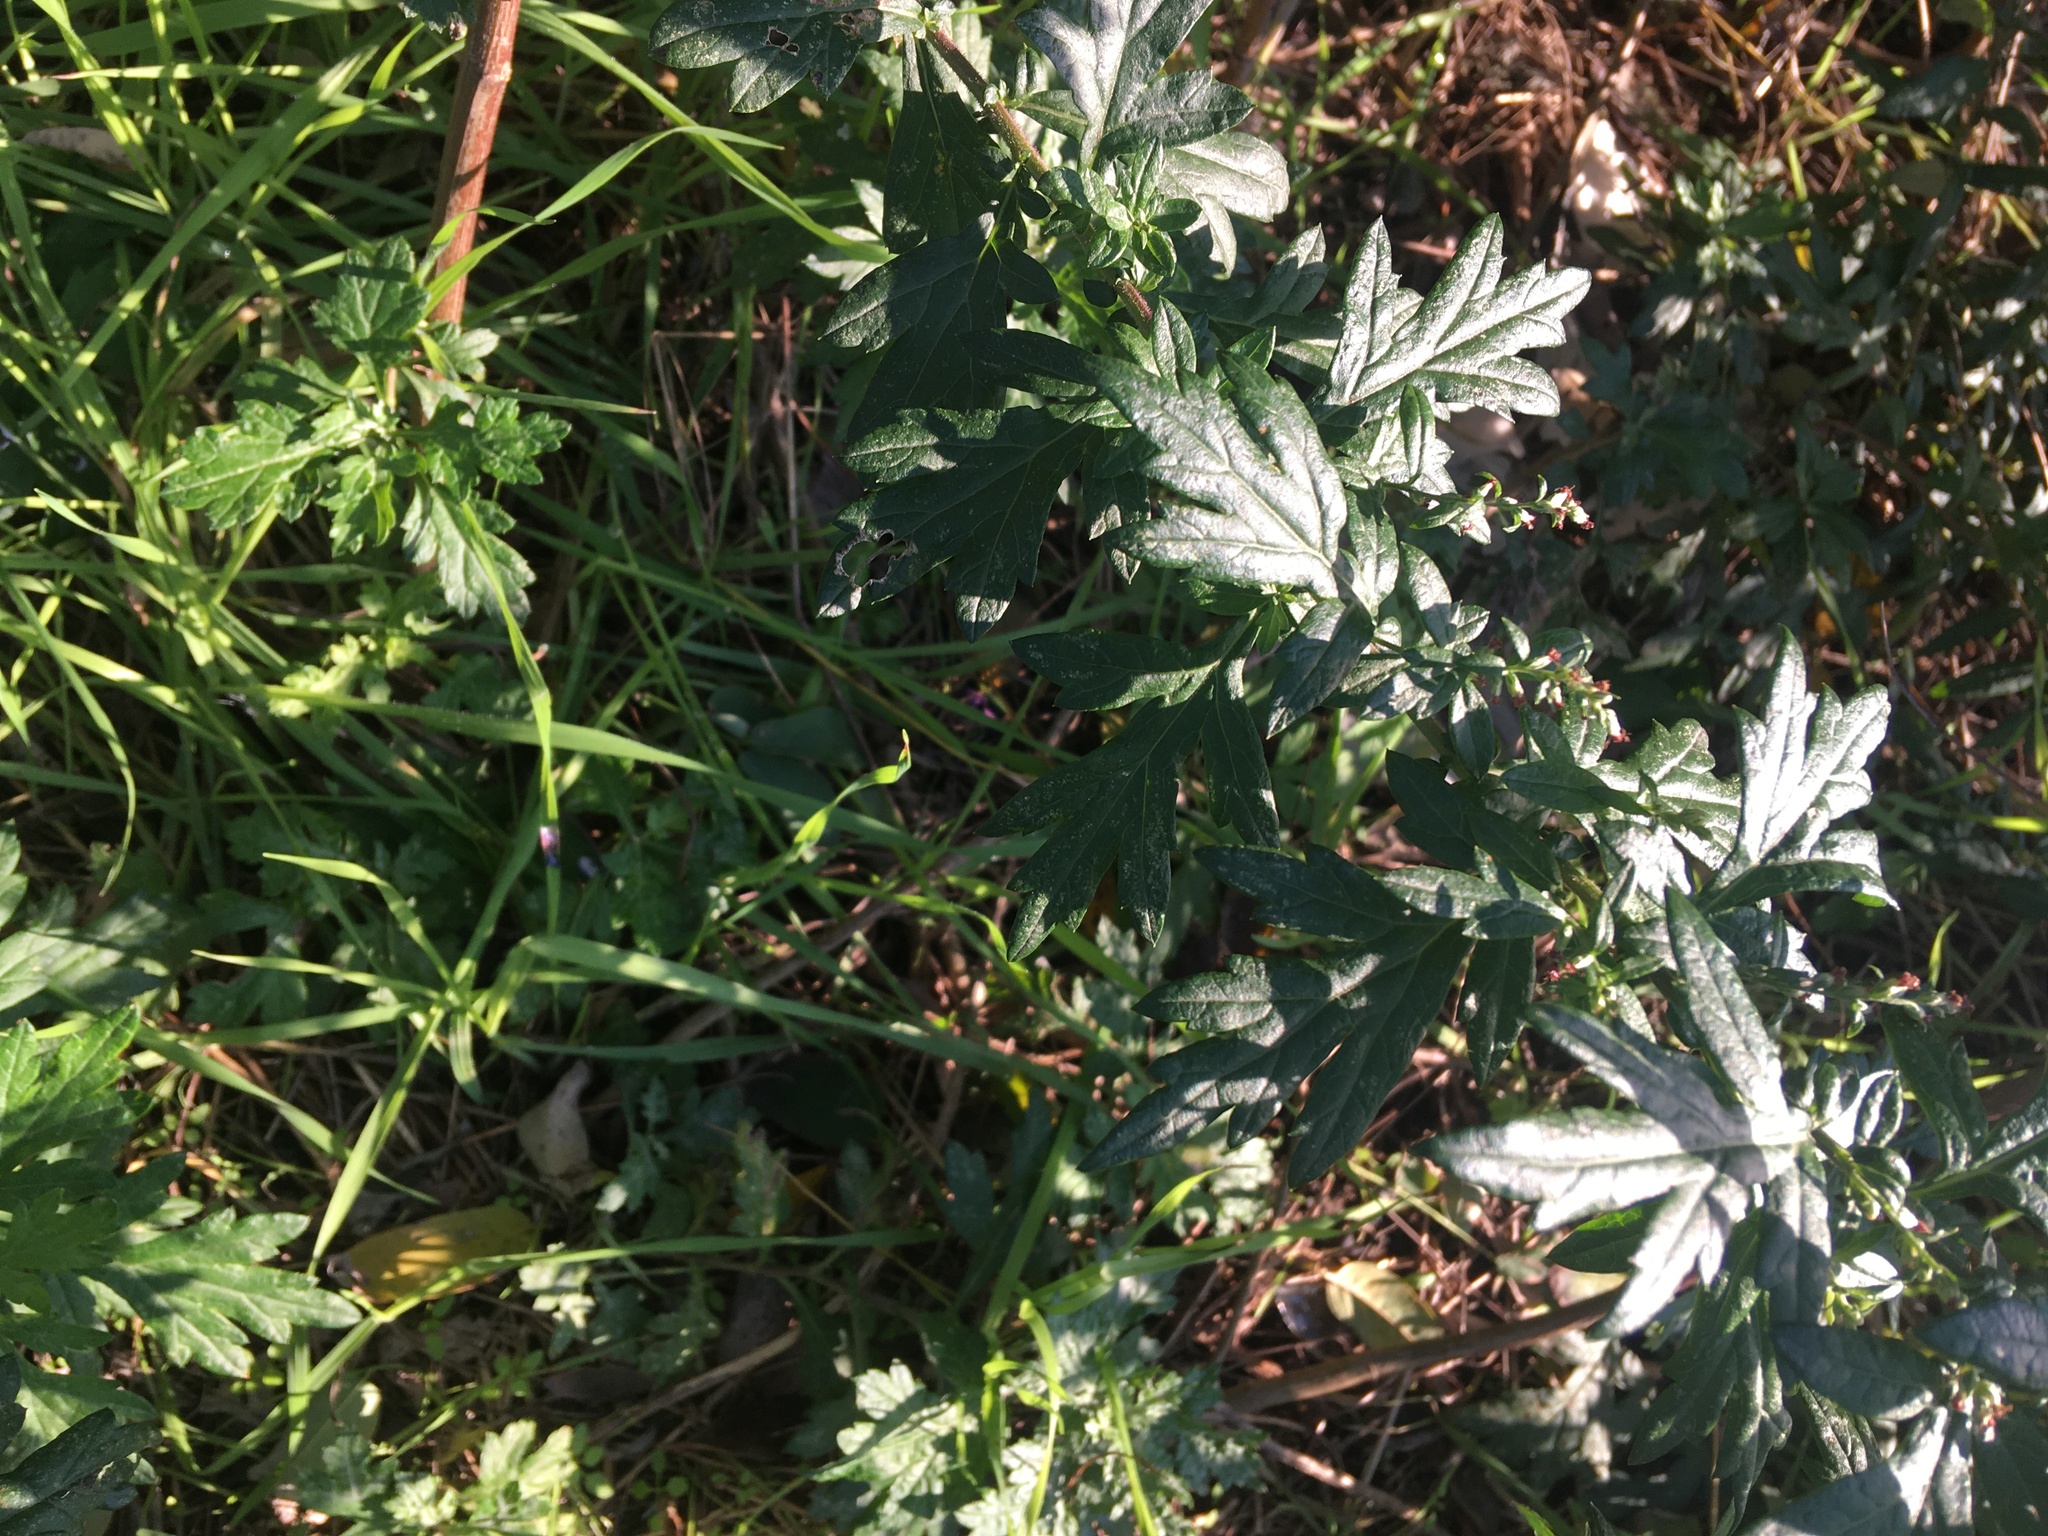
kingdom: Plantae
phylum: Tracheophyta
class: Magnoliopsida
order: Asterales
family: Asteraceae
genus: Artemisia
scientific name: Artemisia vulgaris
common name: Mugwort
